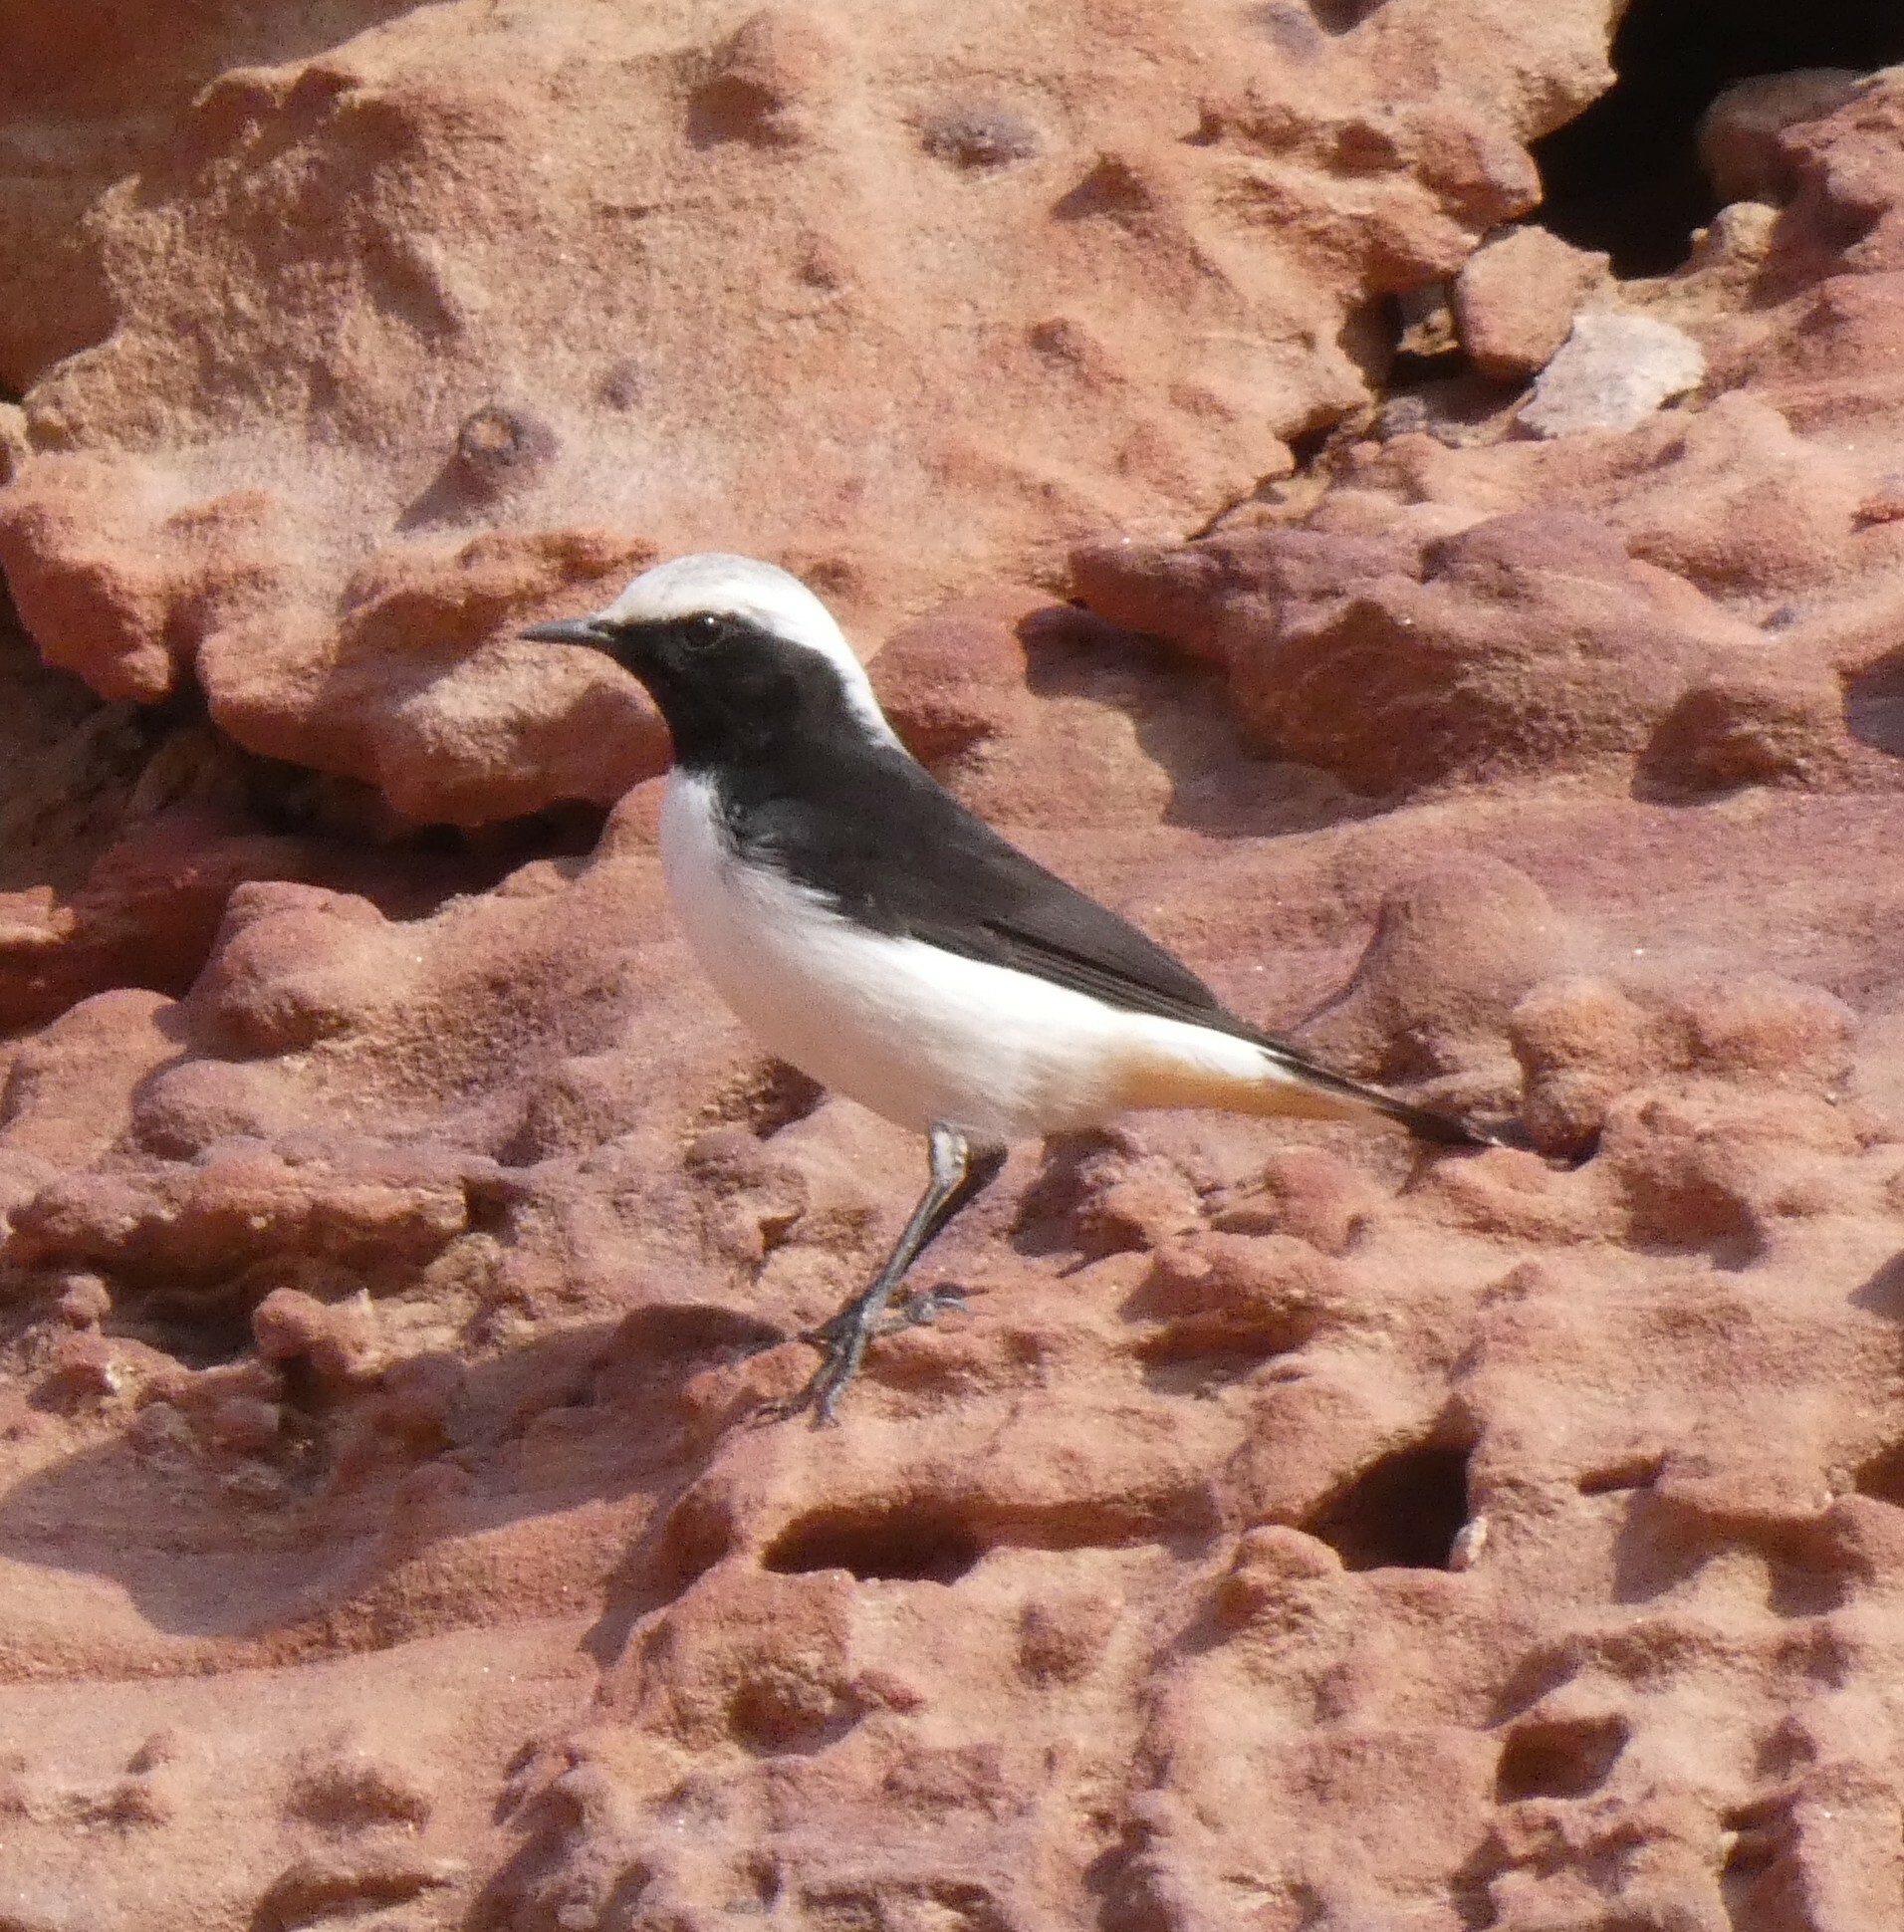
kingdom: Animalia
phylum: Chordata
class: Aves
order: Passeriformes
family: Muscicapidae
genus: Oenanthe
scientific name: Oenanthe lugens
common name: Mourning wheatear
